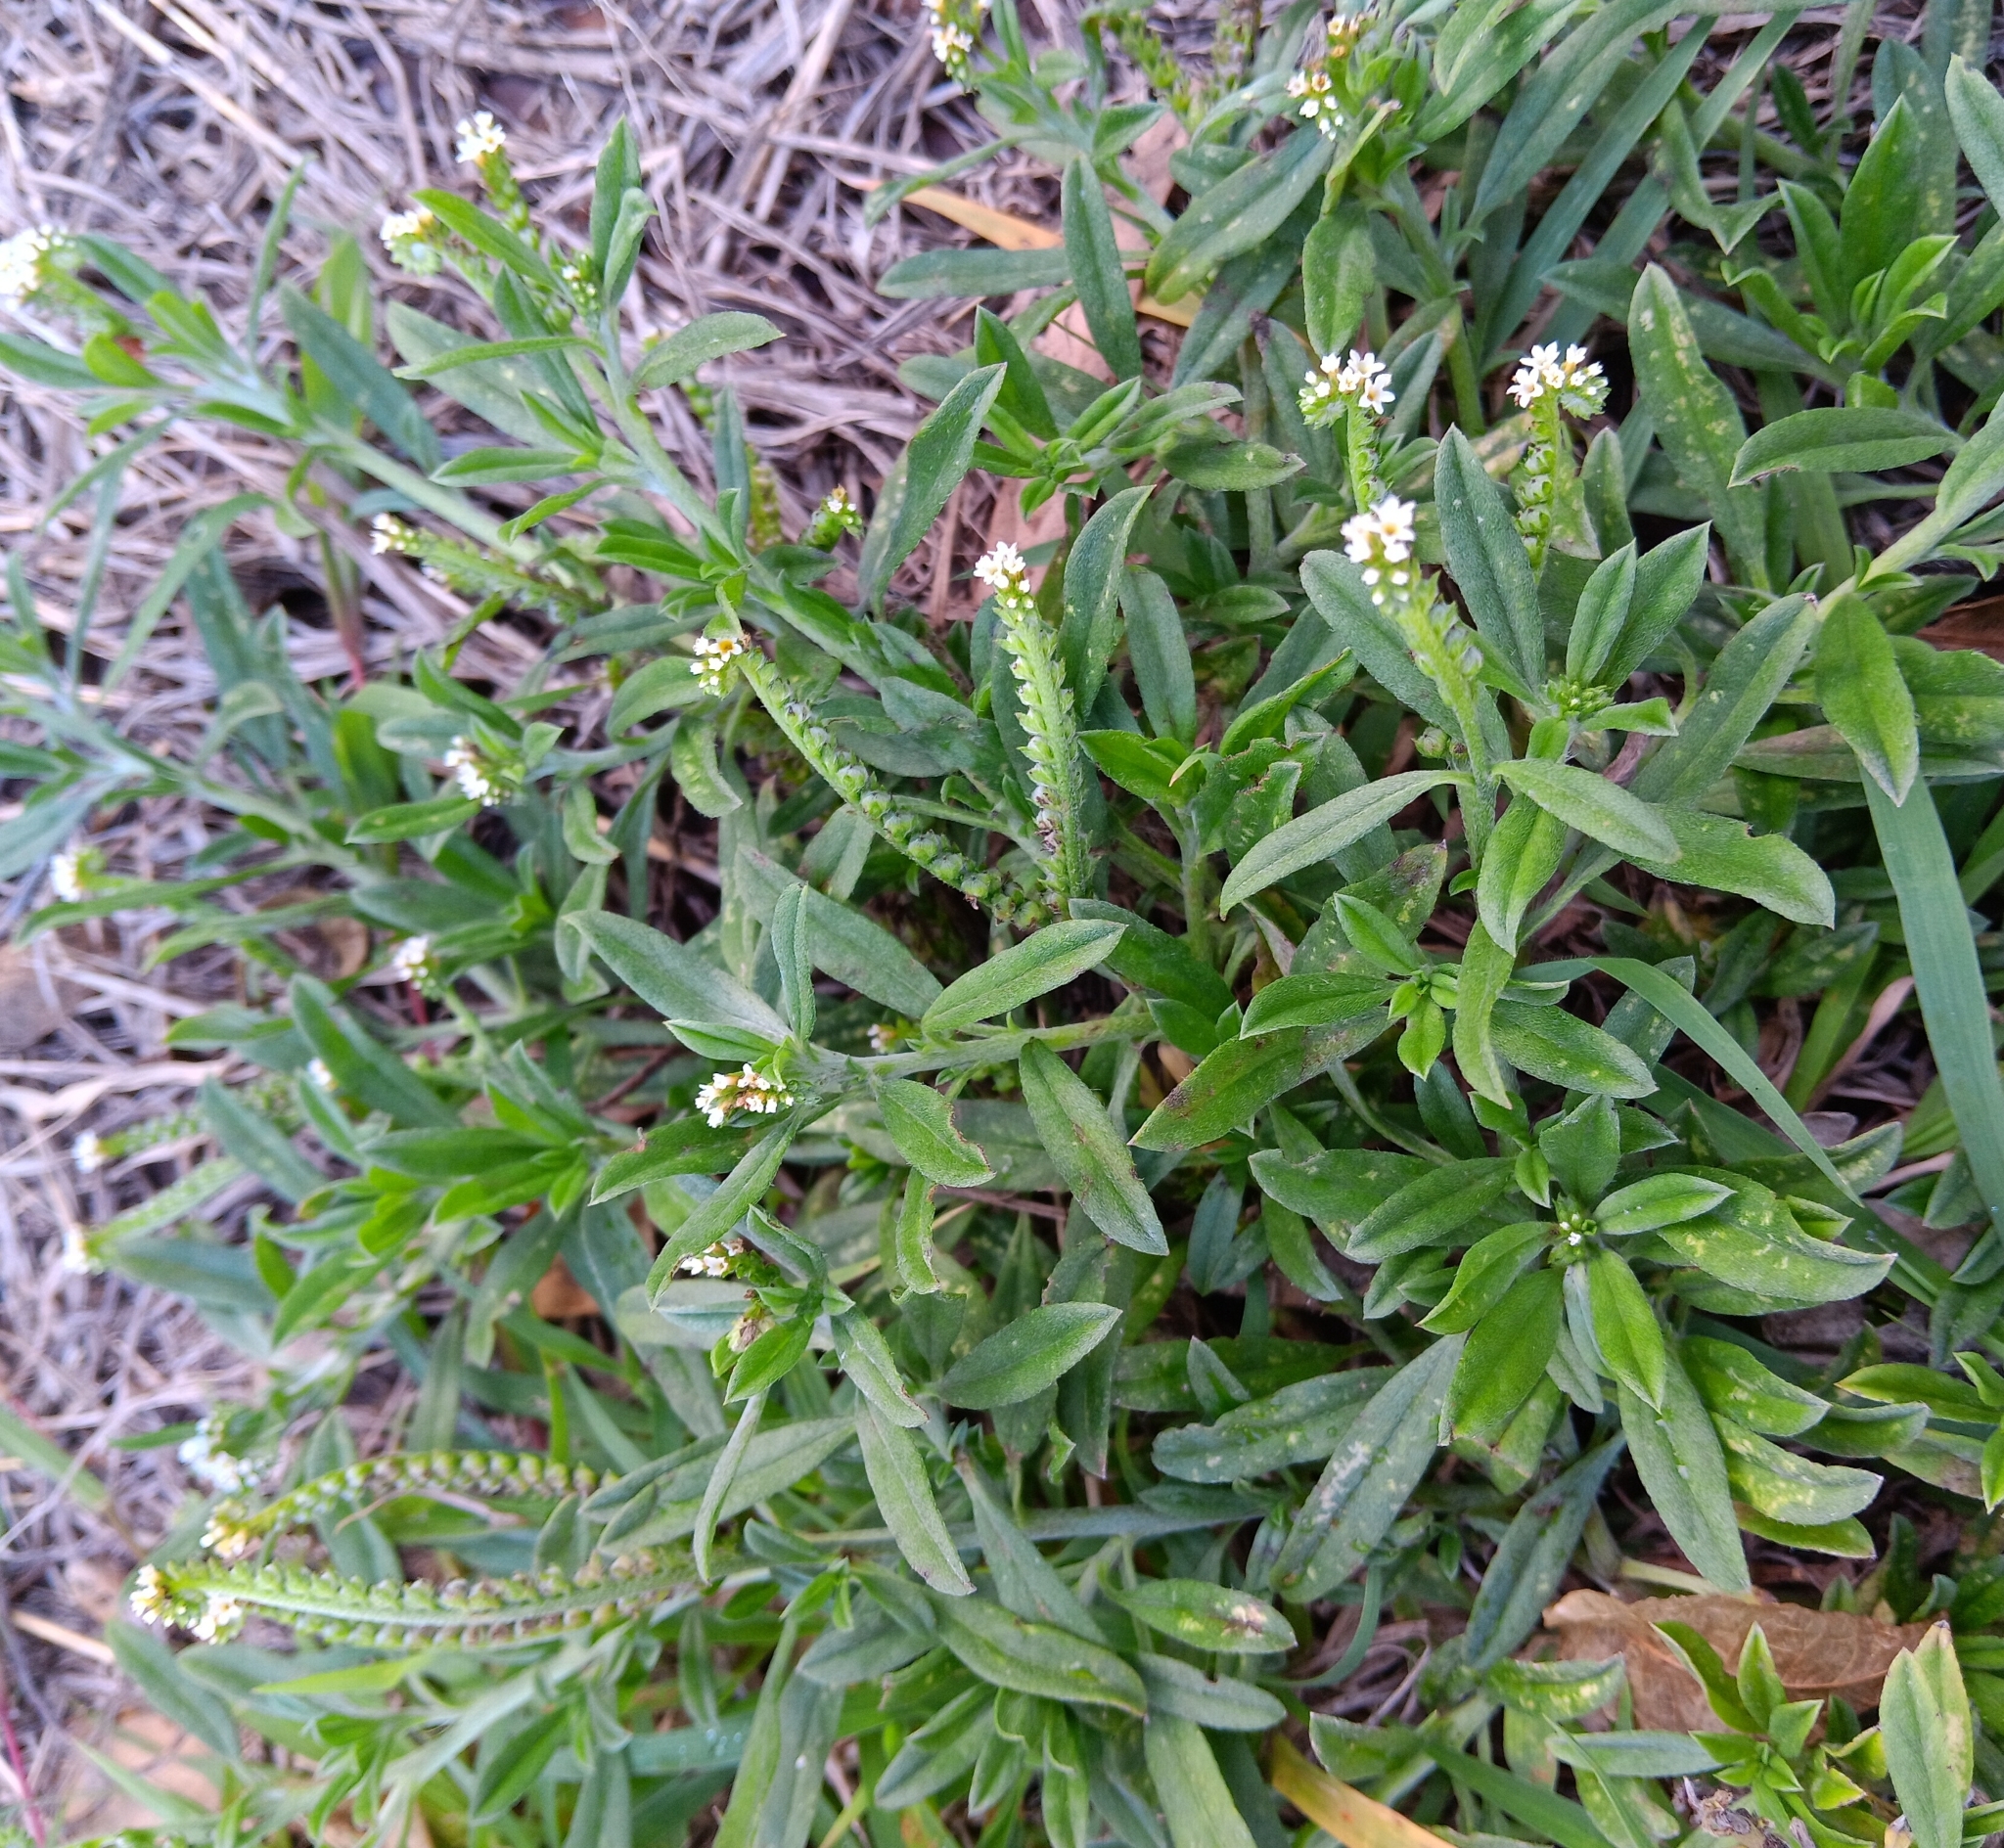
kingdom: Plantae
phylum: Tracheophyta
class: Magnoliopsida
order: Boraginales
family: Heliotropiaceae
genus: Euploca
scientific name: Euploca procumbens
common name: Fourspike heliotrope
